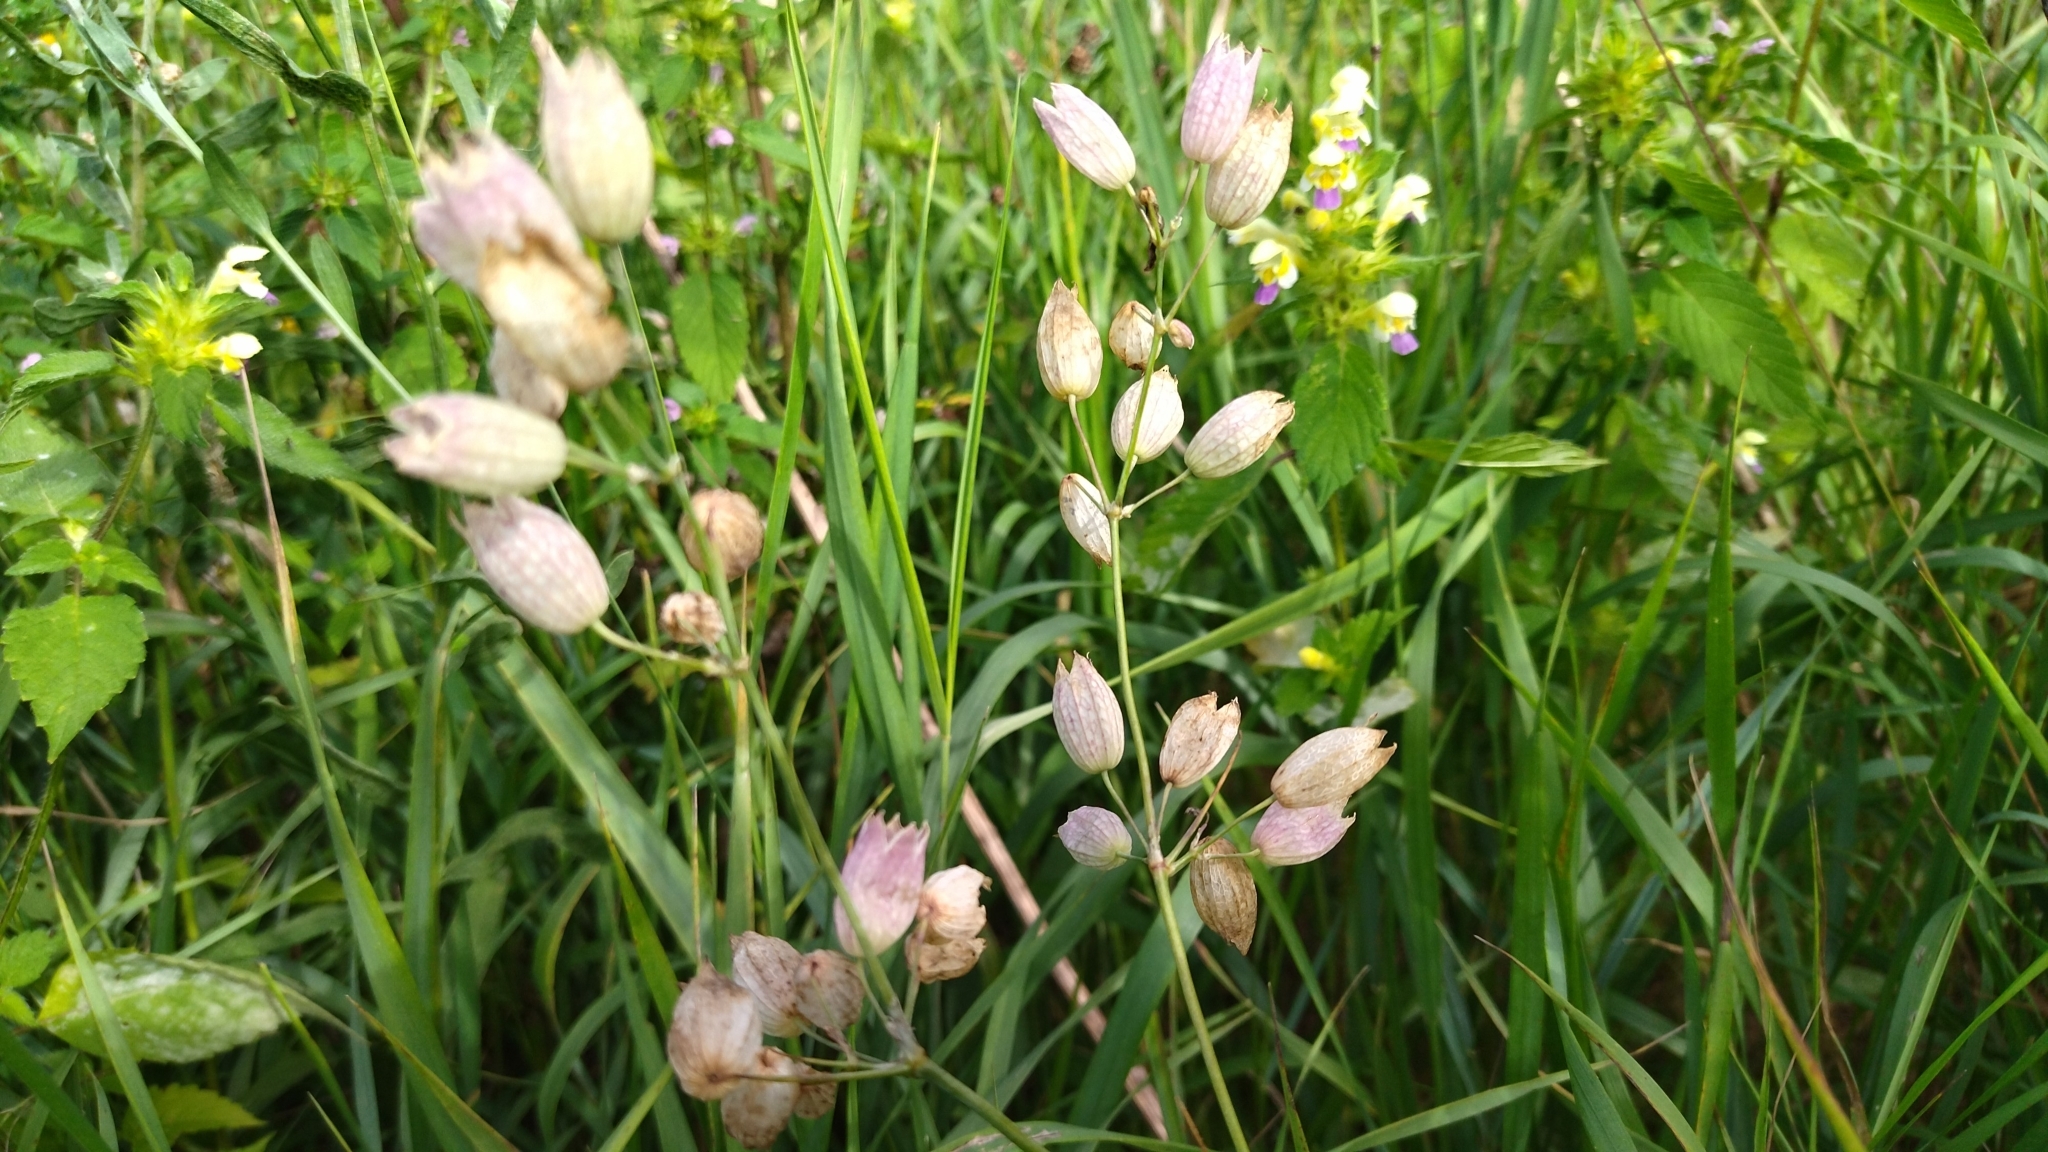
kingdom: Plantae
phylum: Tracheophyta
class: Magnoliopsida
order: Caryophyllales
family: Caryophyllaceae
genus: Silene
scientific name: Silene vulgaris
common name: Bladder campion
